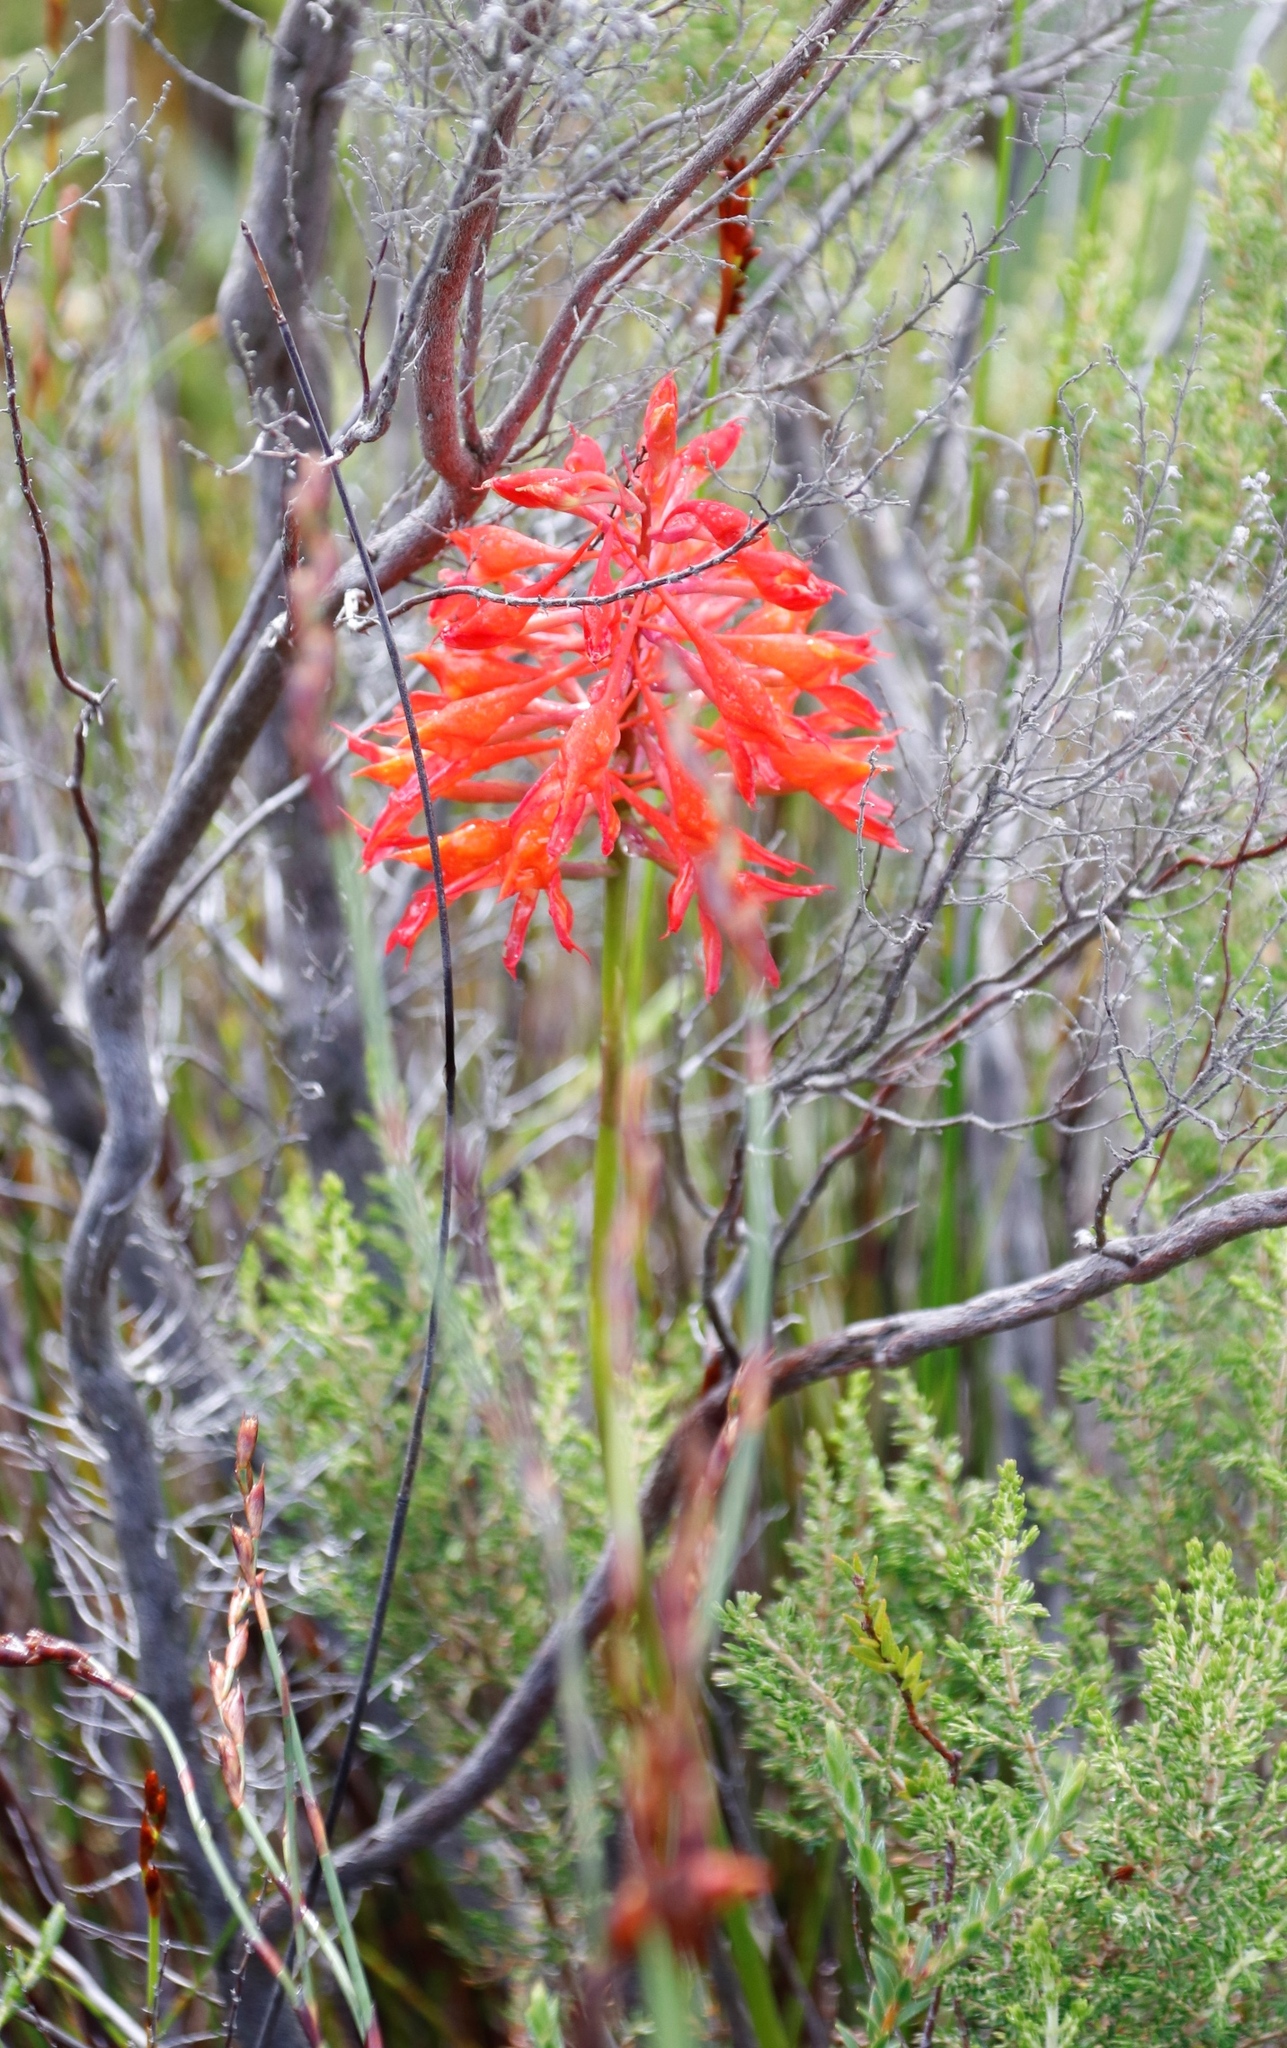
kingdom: Plantae
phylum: Tracheophyta
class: Liliopsida
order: Asparagales
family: Orchidaceae
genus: Disa
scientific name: Disa ferruginea
